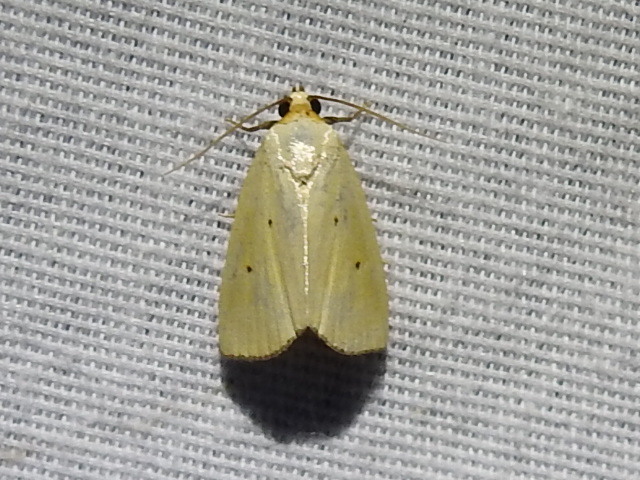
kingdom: Animalia
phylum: Arthropoda
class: Insecta
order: Lepidoptera
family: Noctuidae
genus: Marimatha
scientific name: Marimatha nigrofimbria
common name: Black-bordered lemon moth
